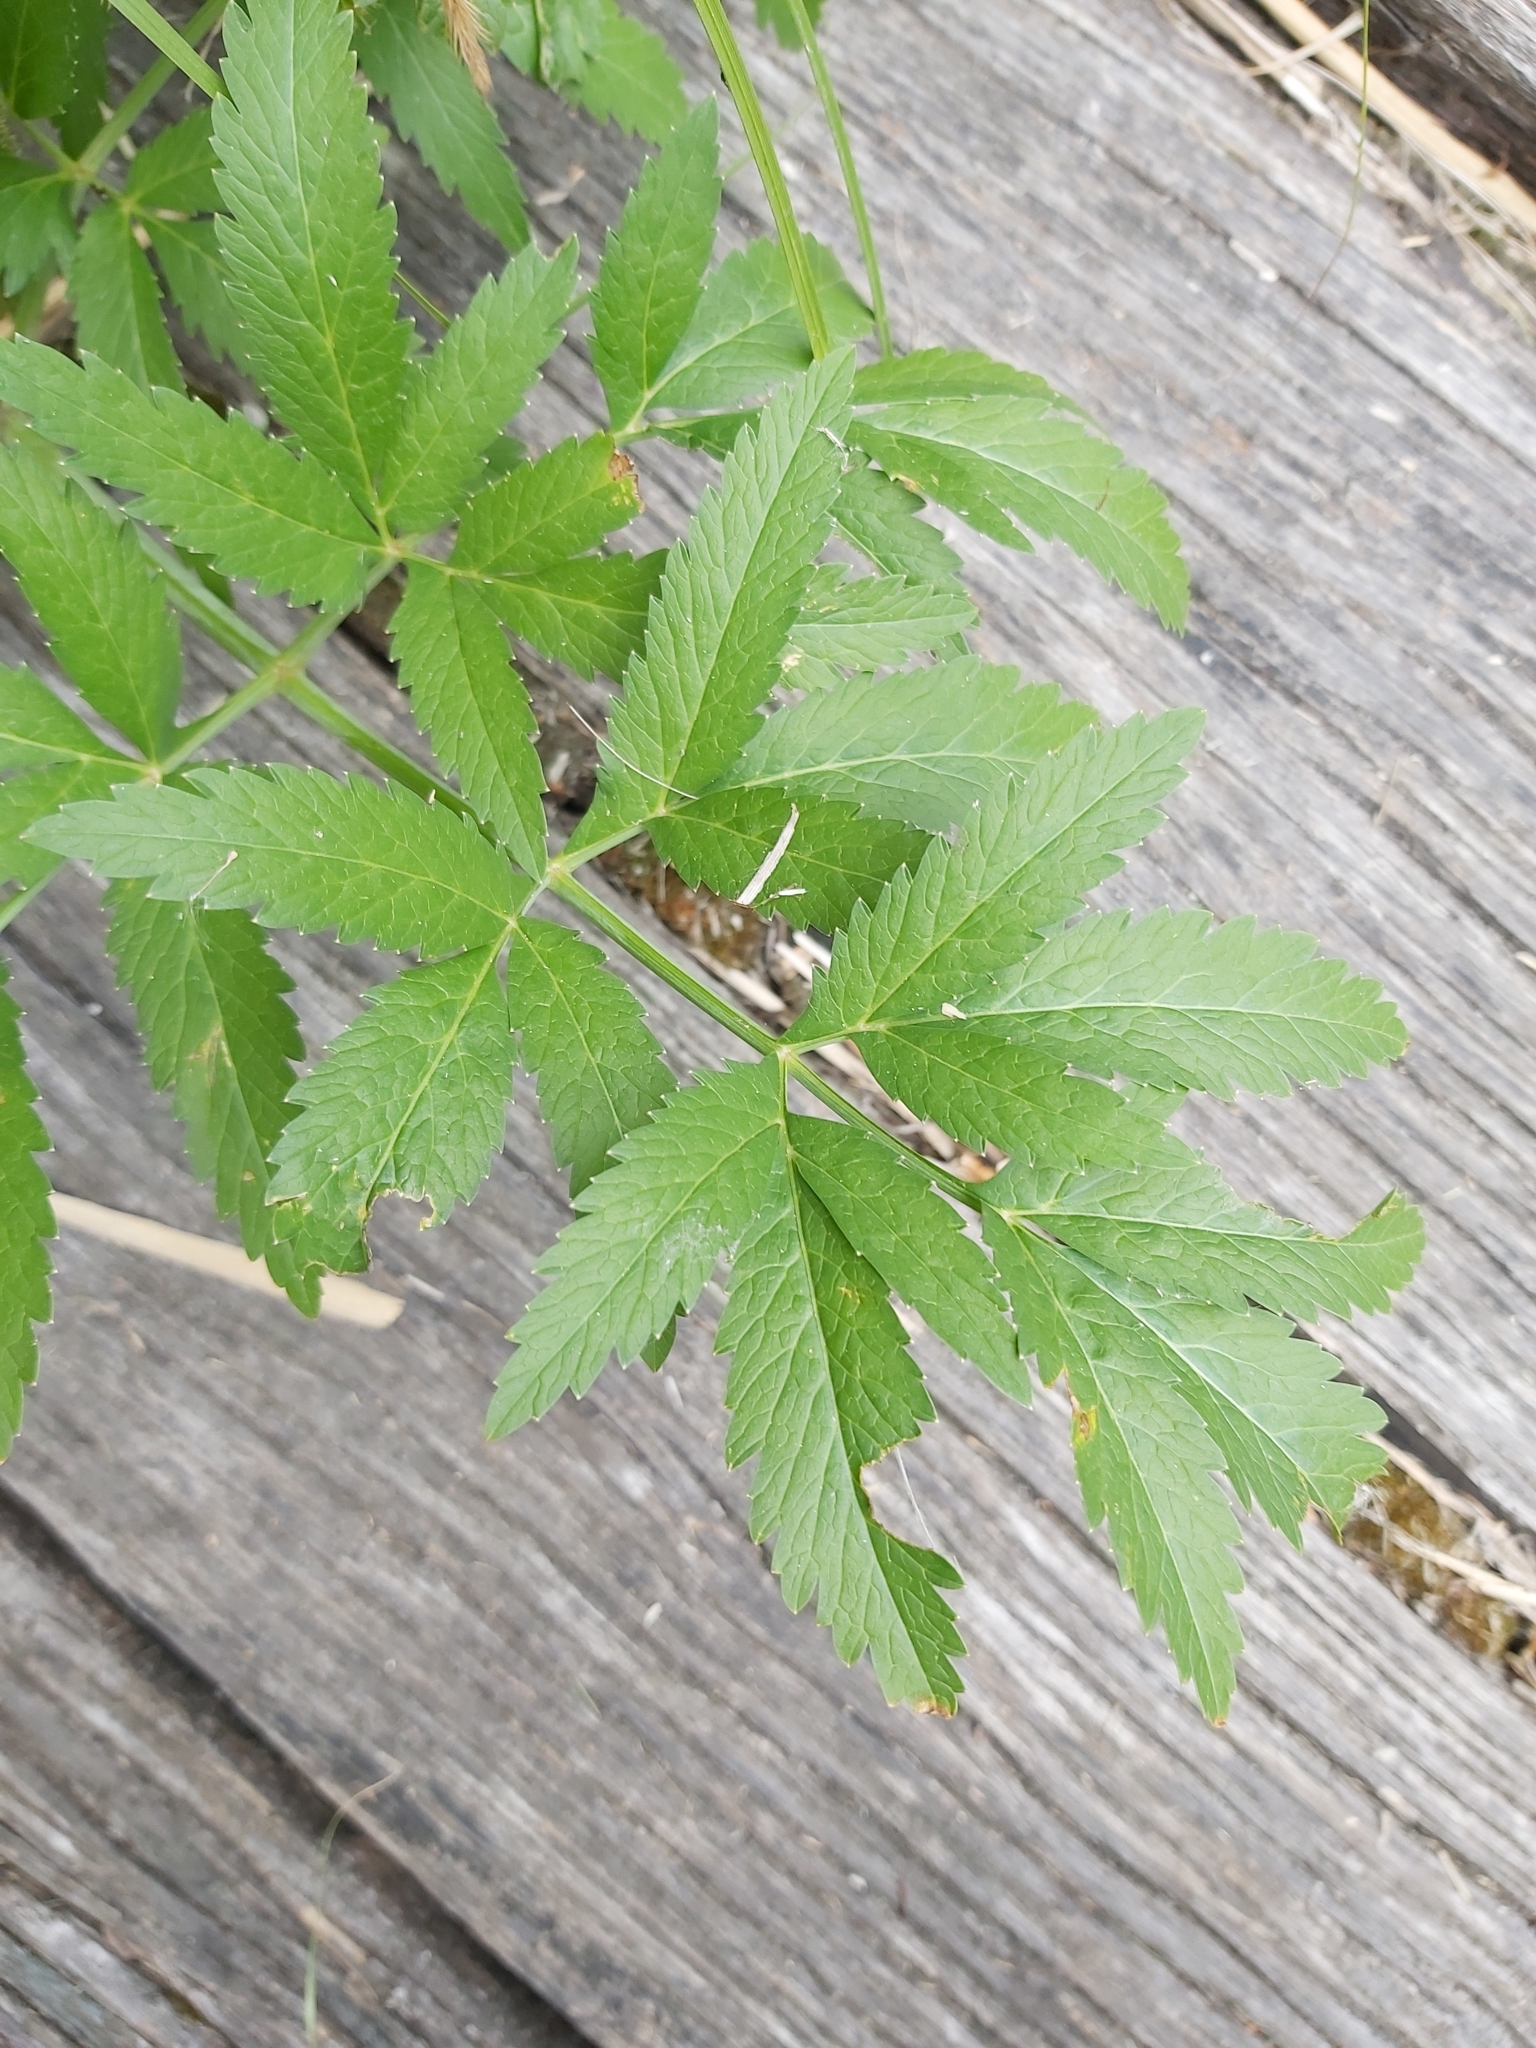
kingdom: Plantae
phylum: Tracheophyta
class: Magnoliopsida
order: Apiales
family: Apiaceae
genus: Cicuta
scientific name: Cicuta virosa
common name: Cowbane
